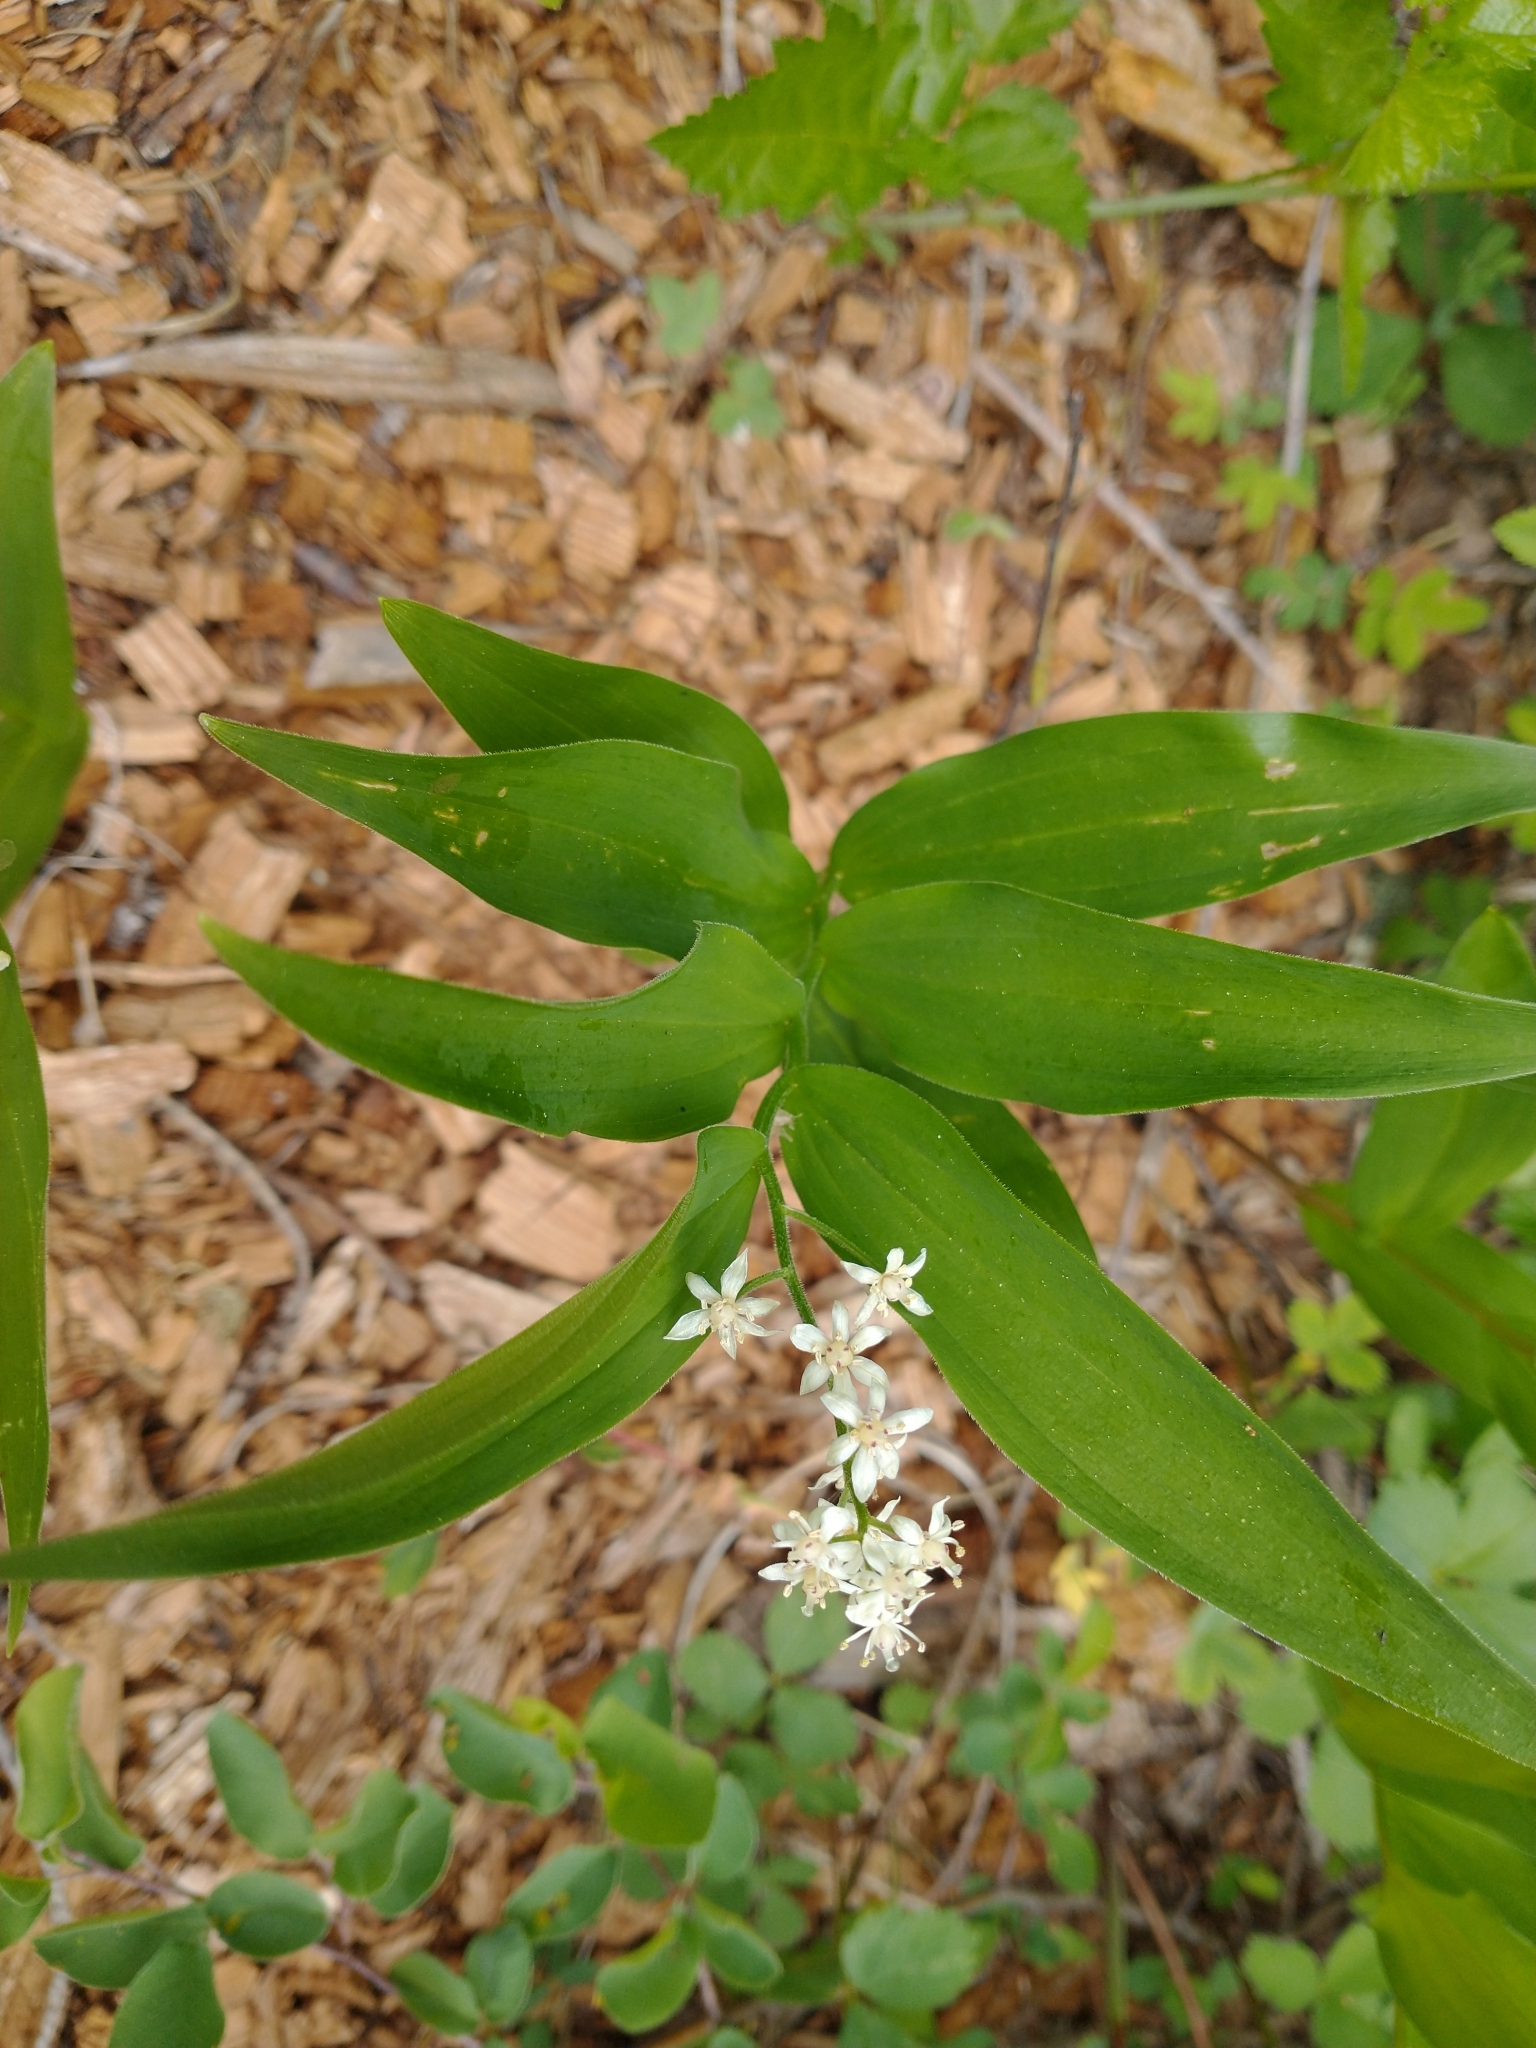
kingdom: Plantae
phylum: Tracheophyta
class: Liliopsida
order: Asparagales
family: Asparagaceae
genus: Maianthemum
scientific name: Maianthemum stellatum
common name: Little false solomon's seal
